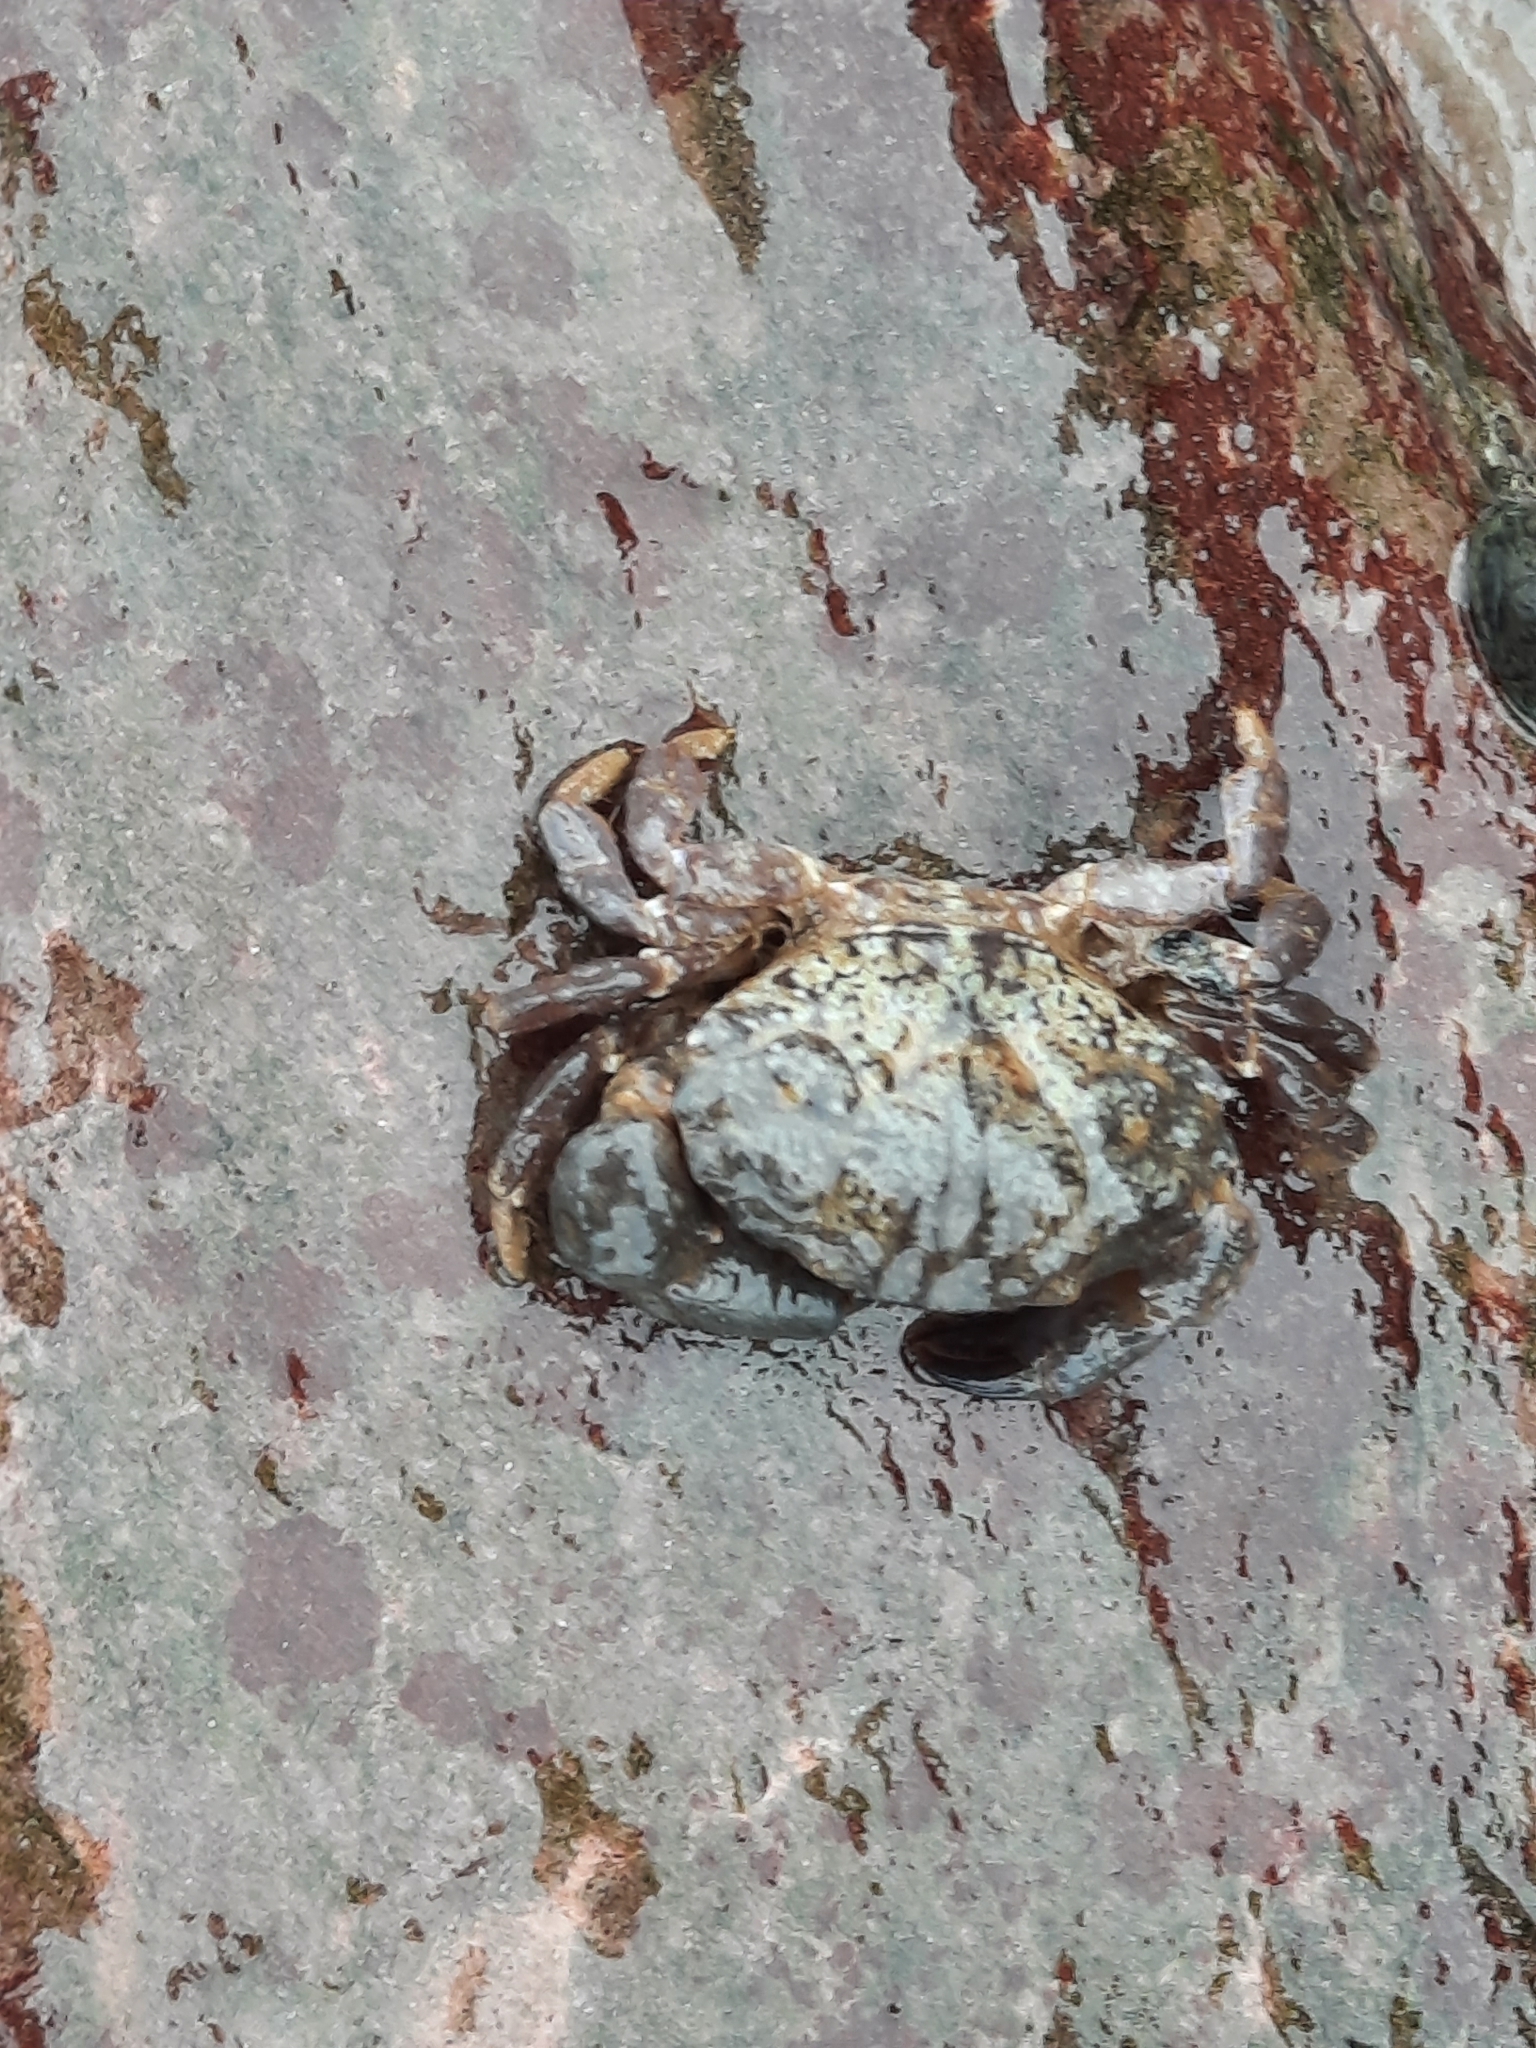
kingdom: Animalia
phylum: Arthropoda
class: Malacostraca
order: Decapoda
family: Xanthidae
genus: Xantho
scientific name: Xantho hydrophilus
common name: Montagu's crab
